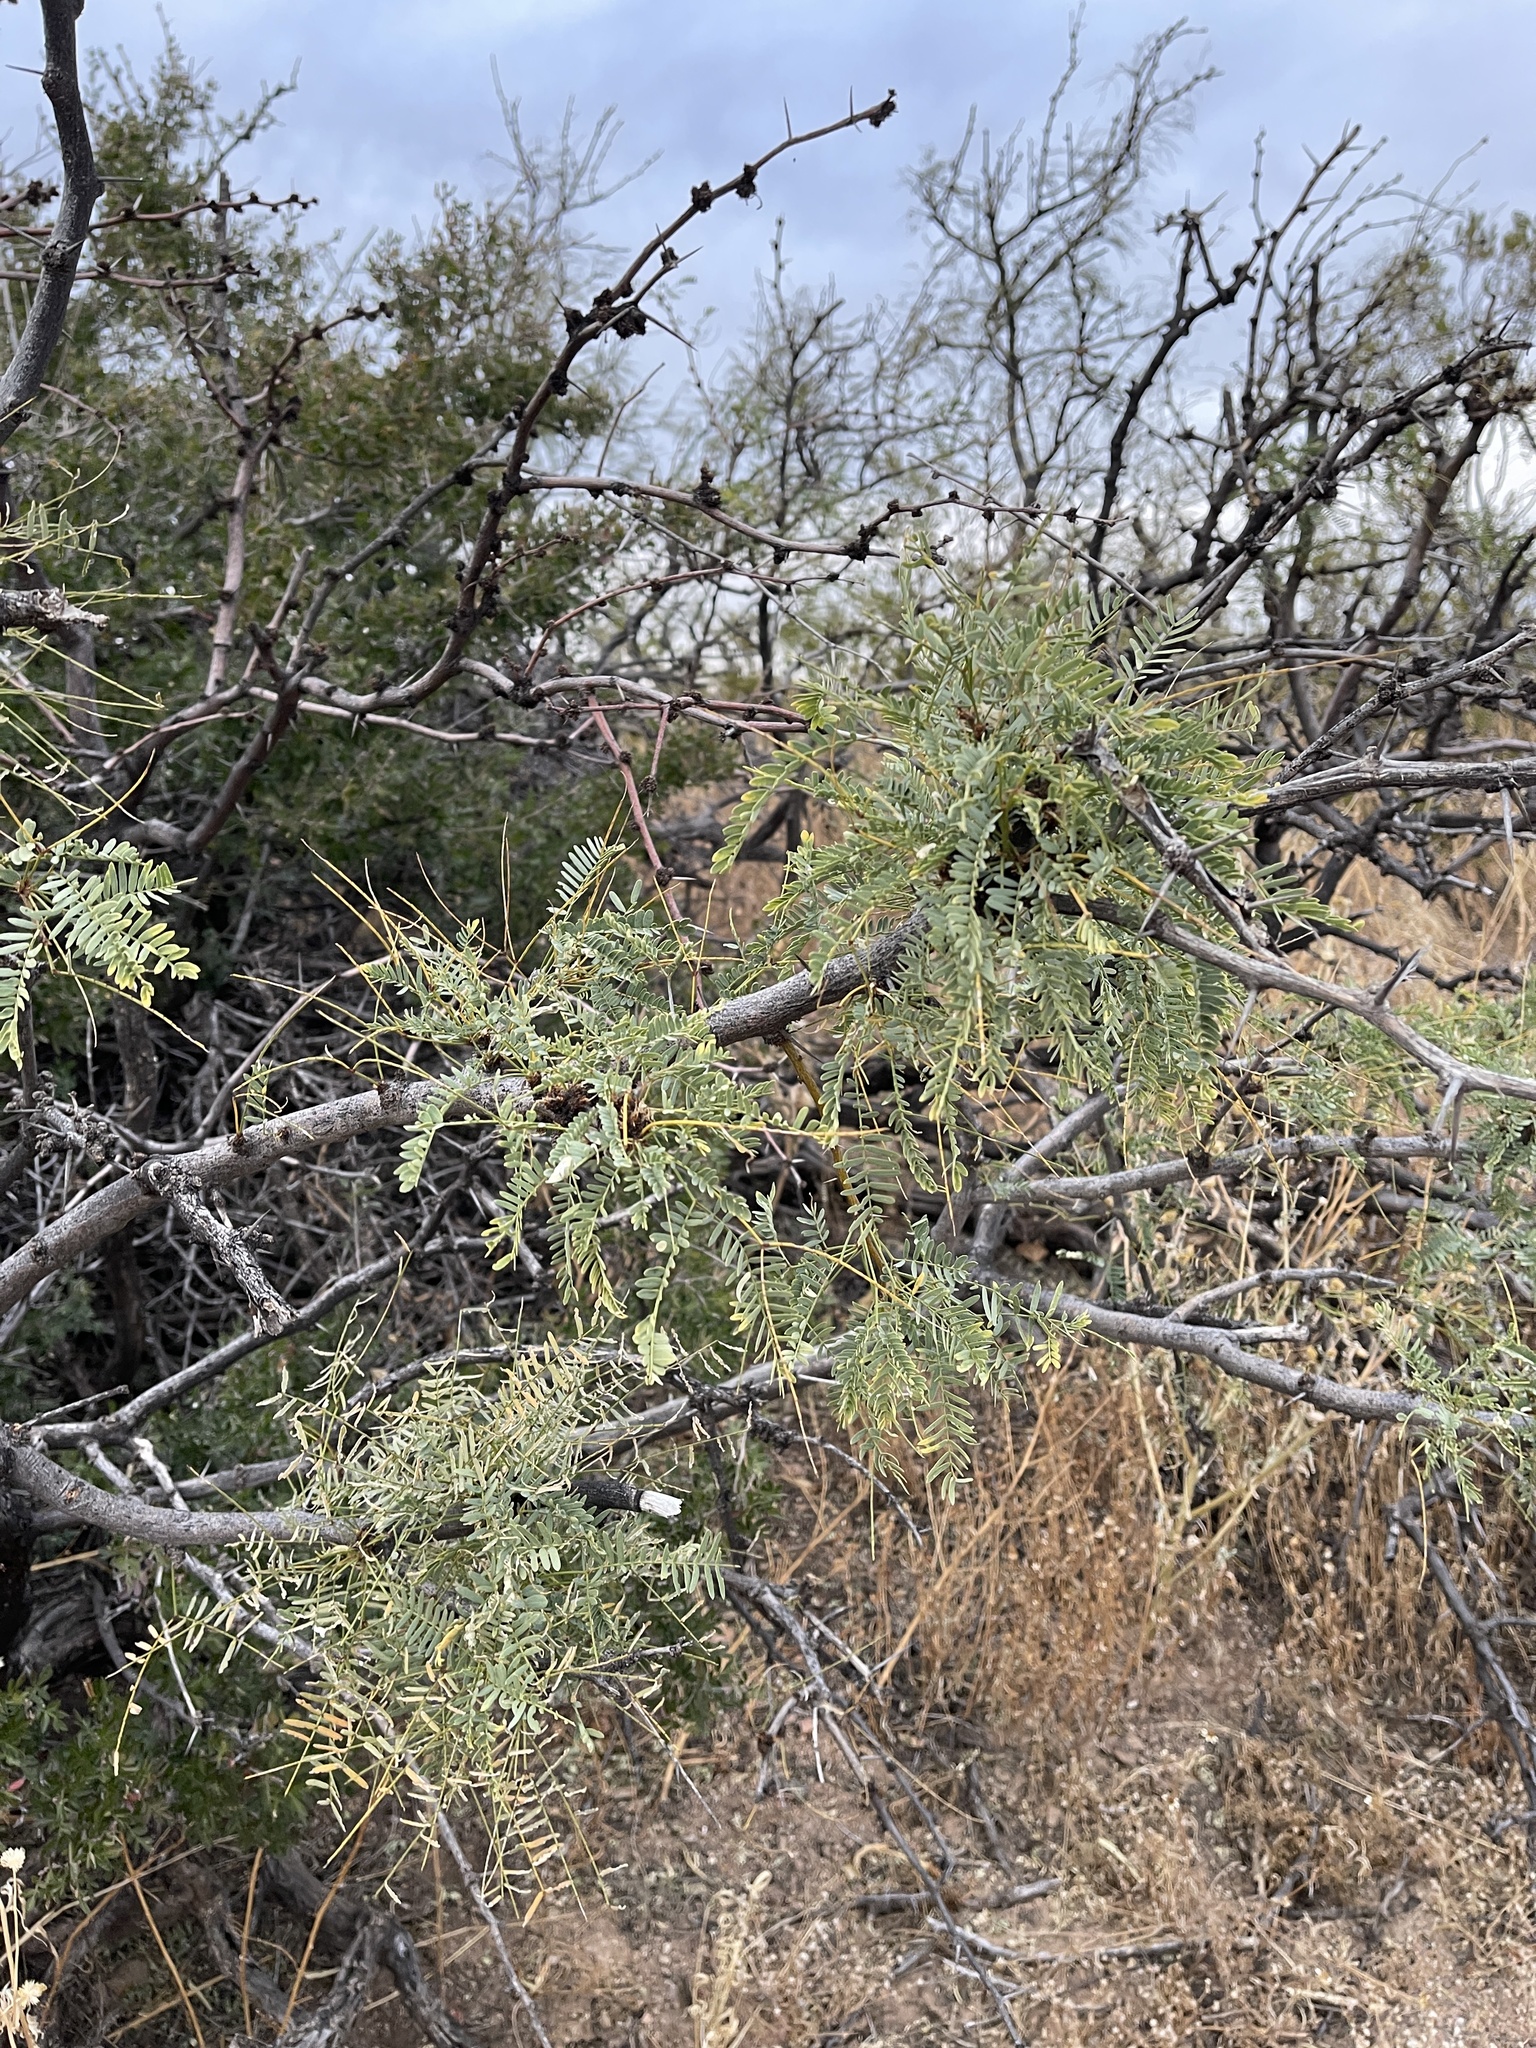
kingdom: Plantae
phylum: Tracheophyta
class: Magnoliopsida
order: Fabales
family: Fabaceae
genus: Prosopis
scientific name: Prosopis glandulosa
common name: Honey mesquite
